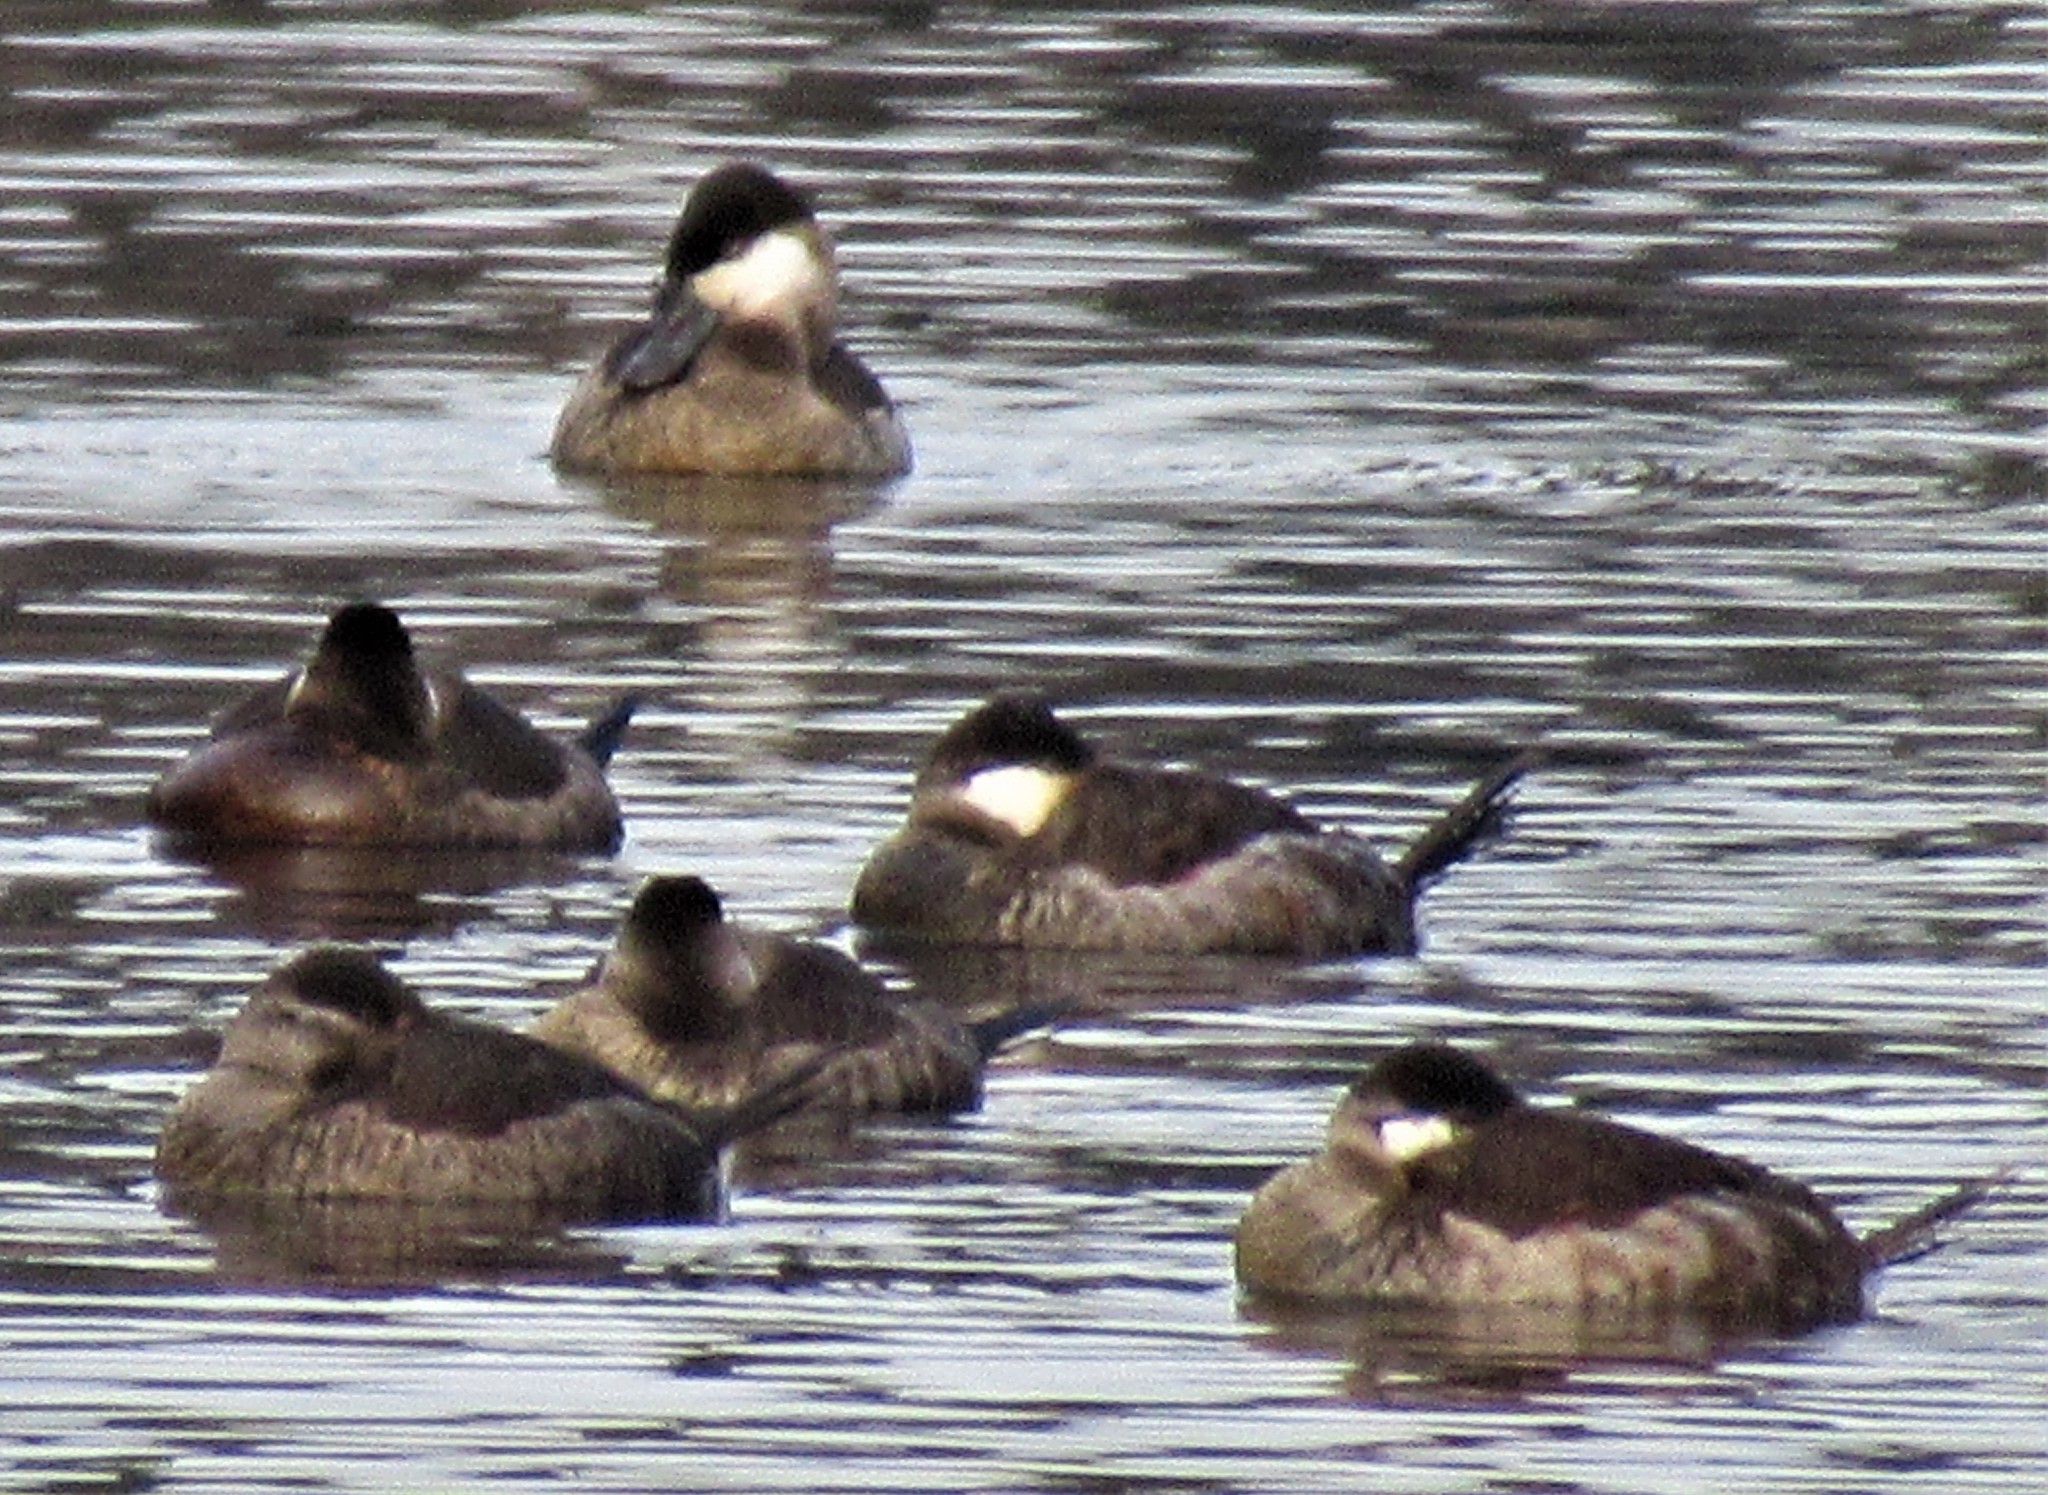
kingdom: Animalia
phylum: Chordata
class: Aves
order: Anseriformes
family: Anatidae
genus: Oxyura
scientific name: Oxyura jamaicensis
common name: Ruddy duck
